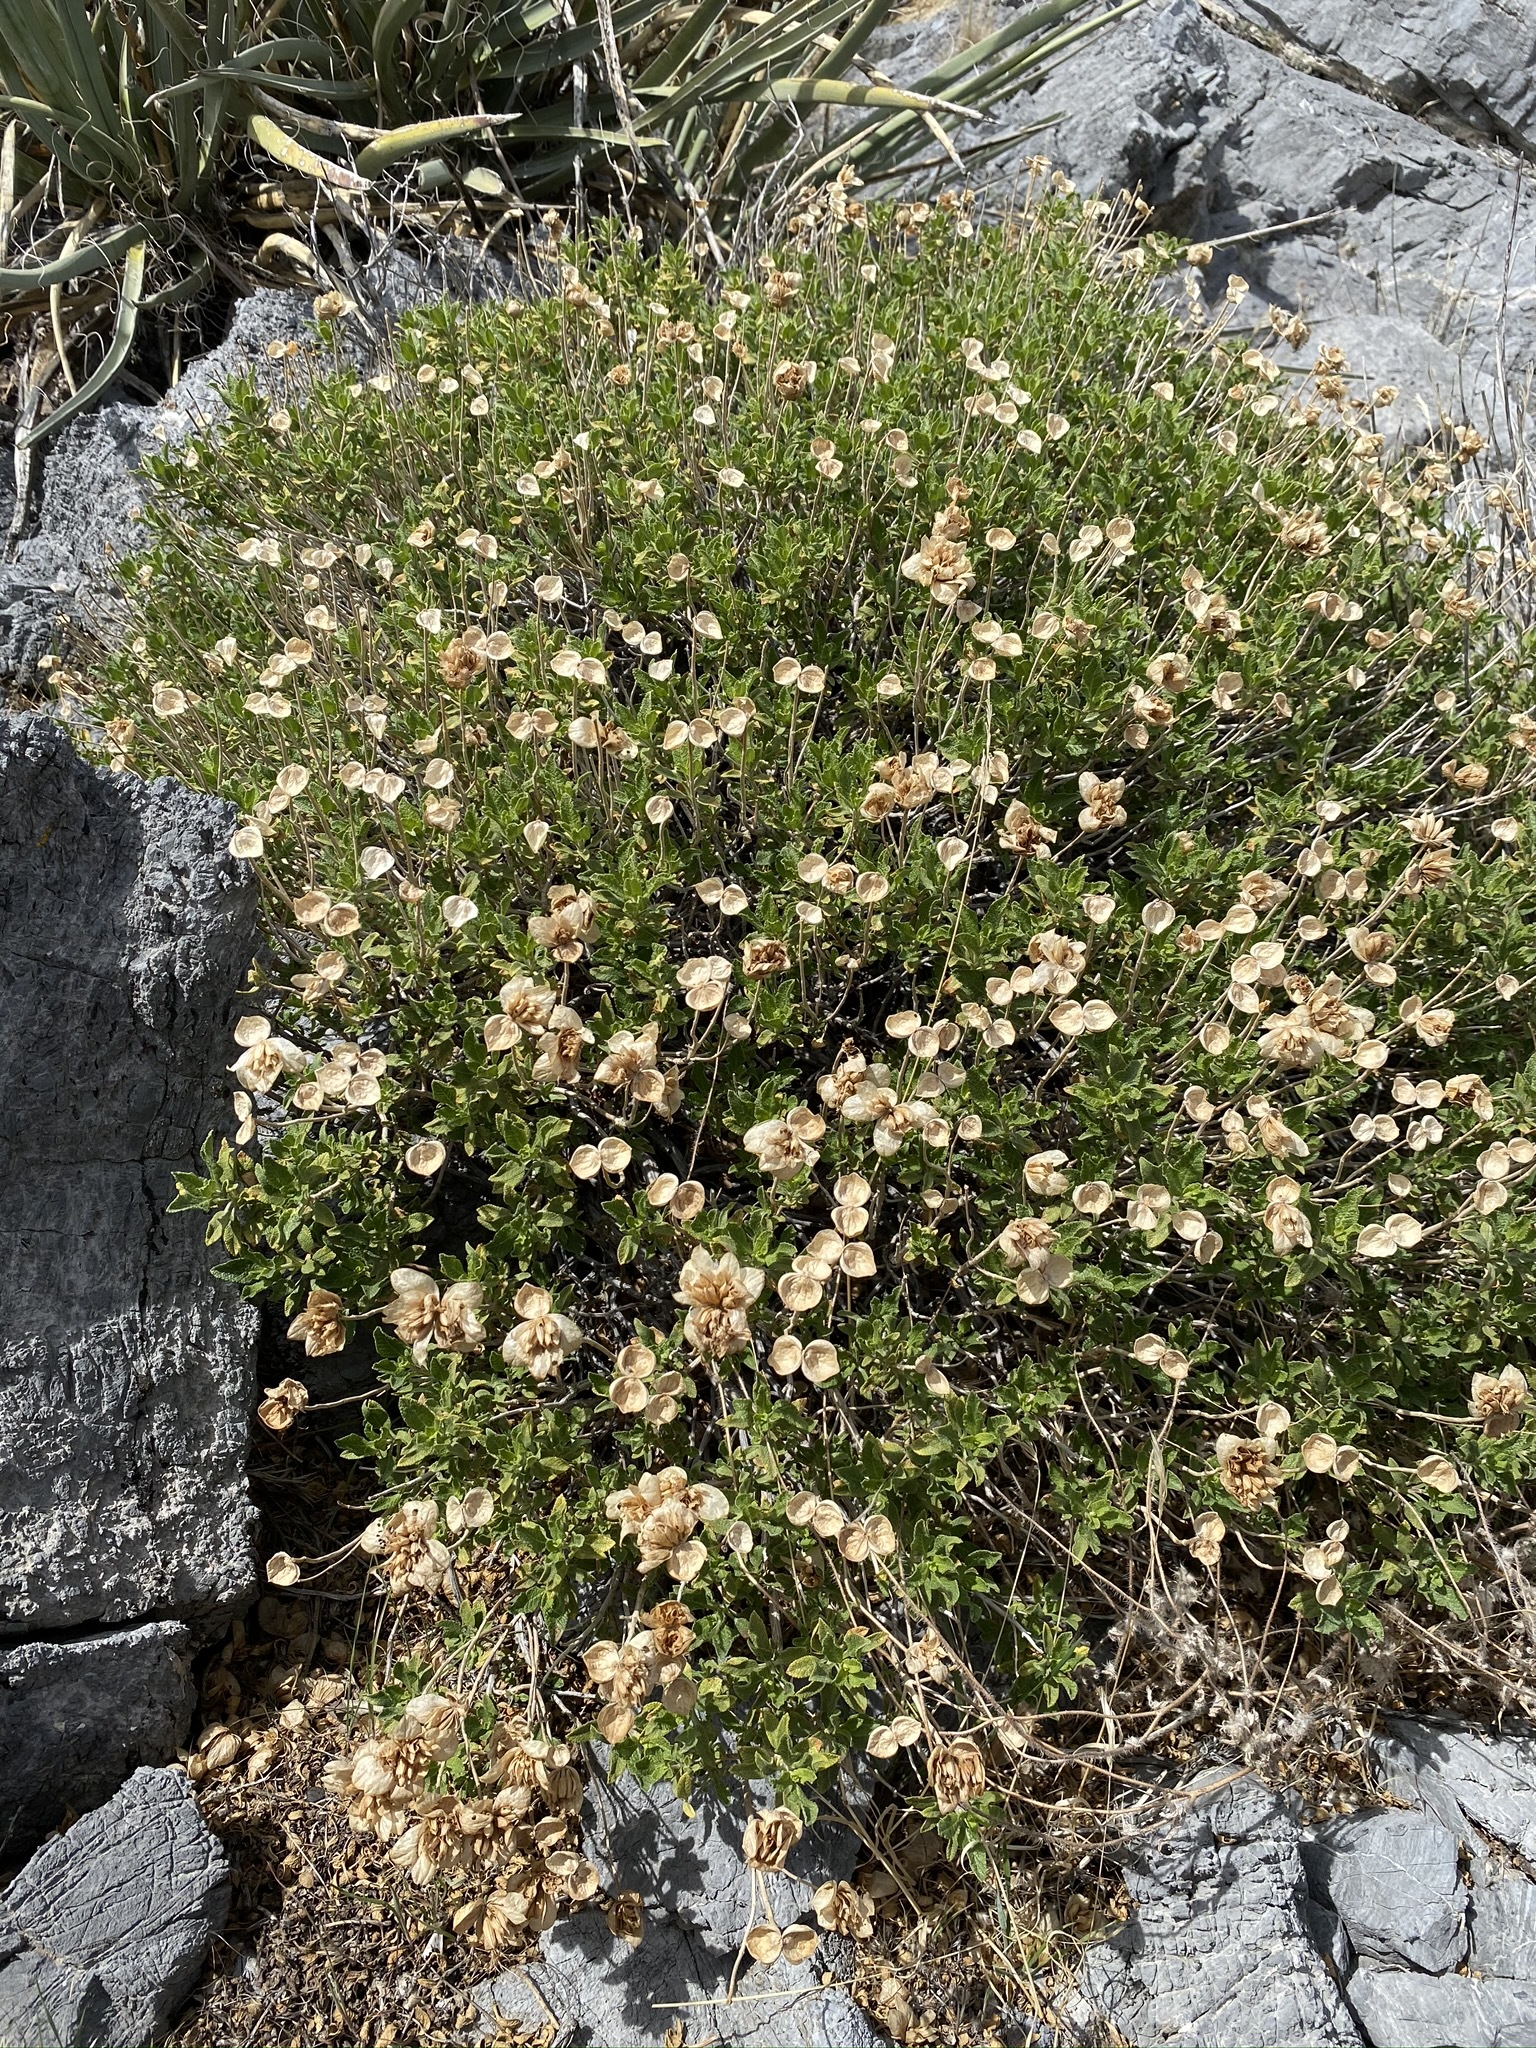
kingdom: Plantae
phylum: Tracheophyta
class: Magnoliopsida
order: Lamiales
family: Lamiaceae
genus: Salvia
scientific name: Salvia mohavensis
